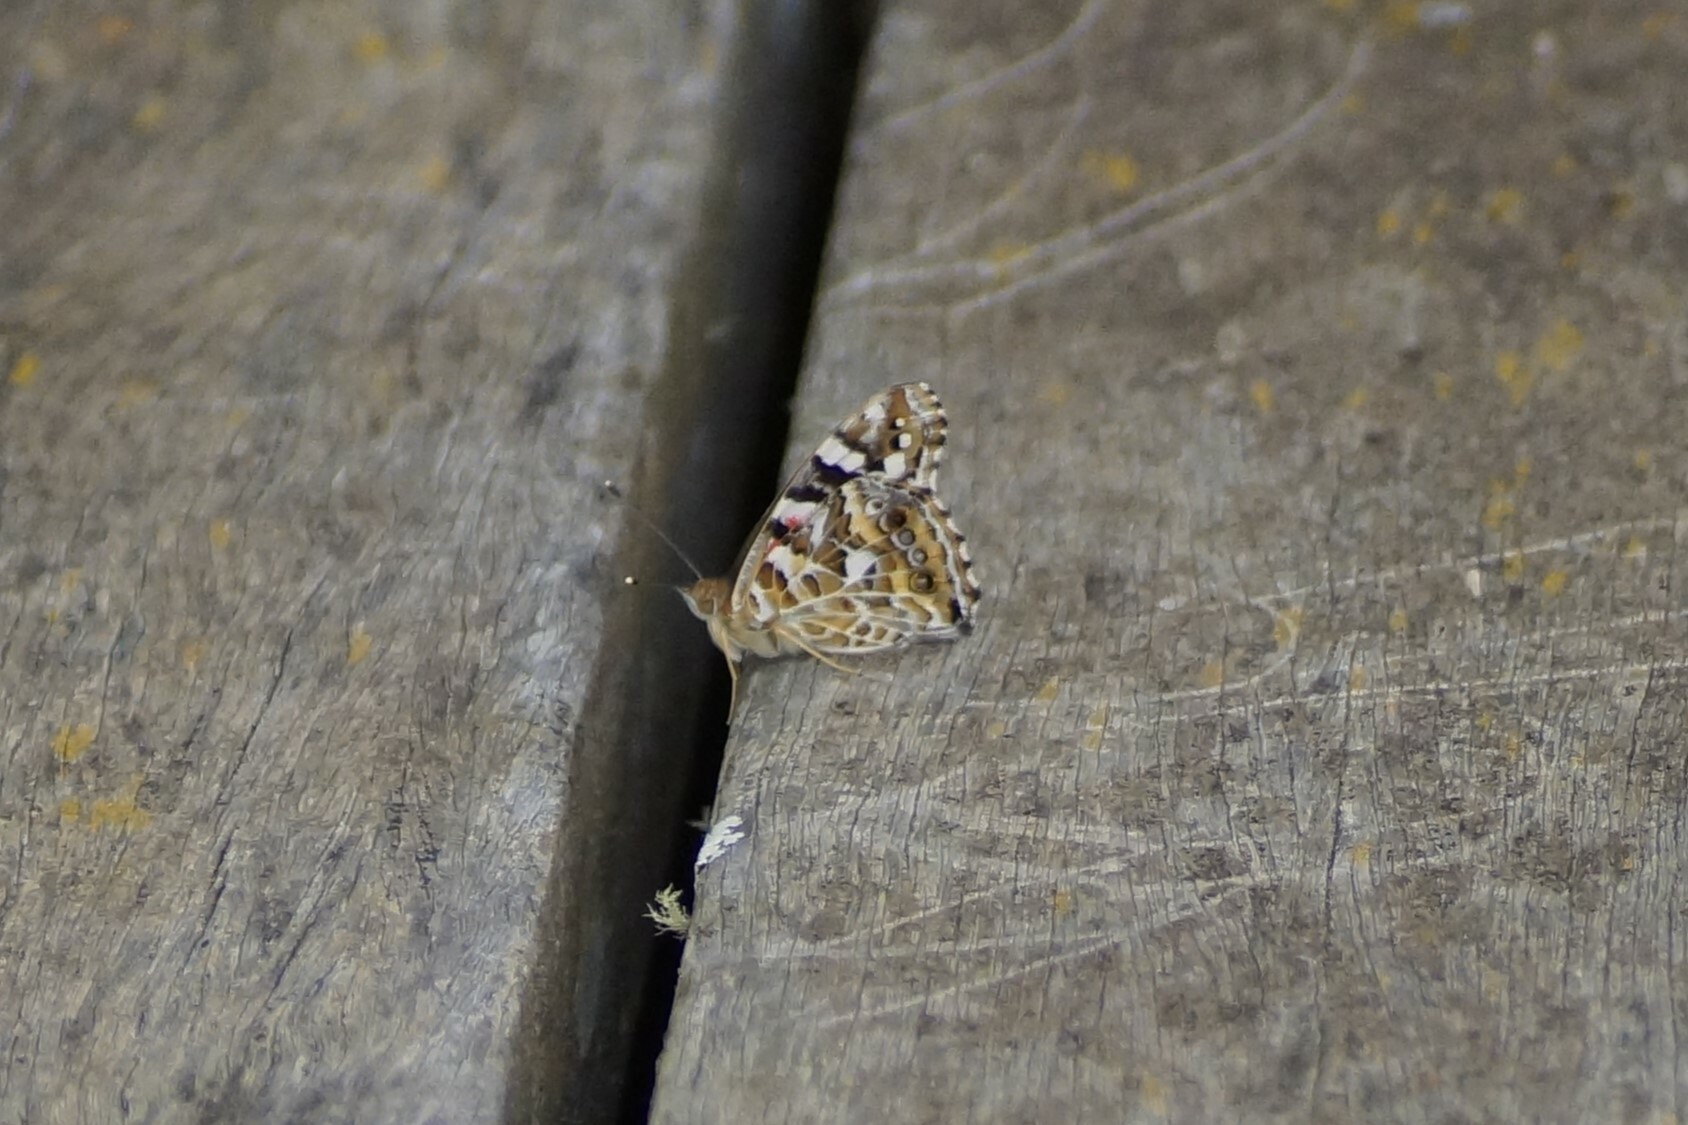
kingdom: Animalia
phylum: Arthropoda
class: Insecta
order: Lepidoptera
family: Nymphalidae
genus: Vanessa
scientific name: Vanessa kershawi
